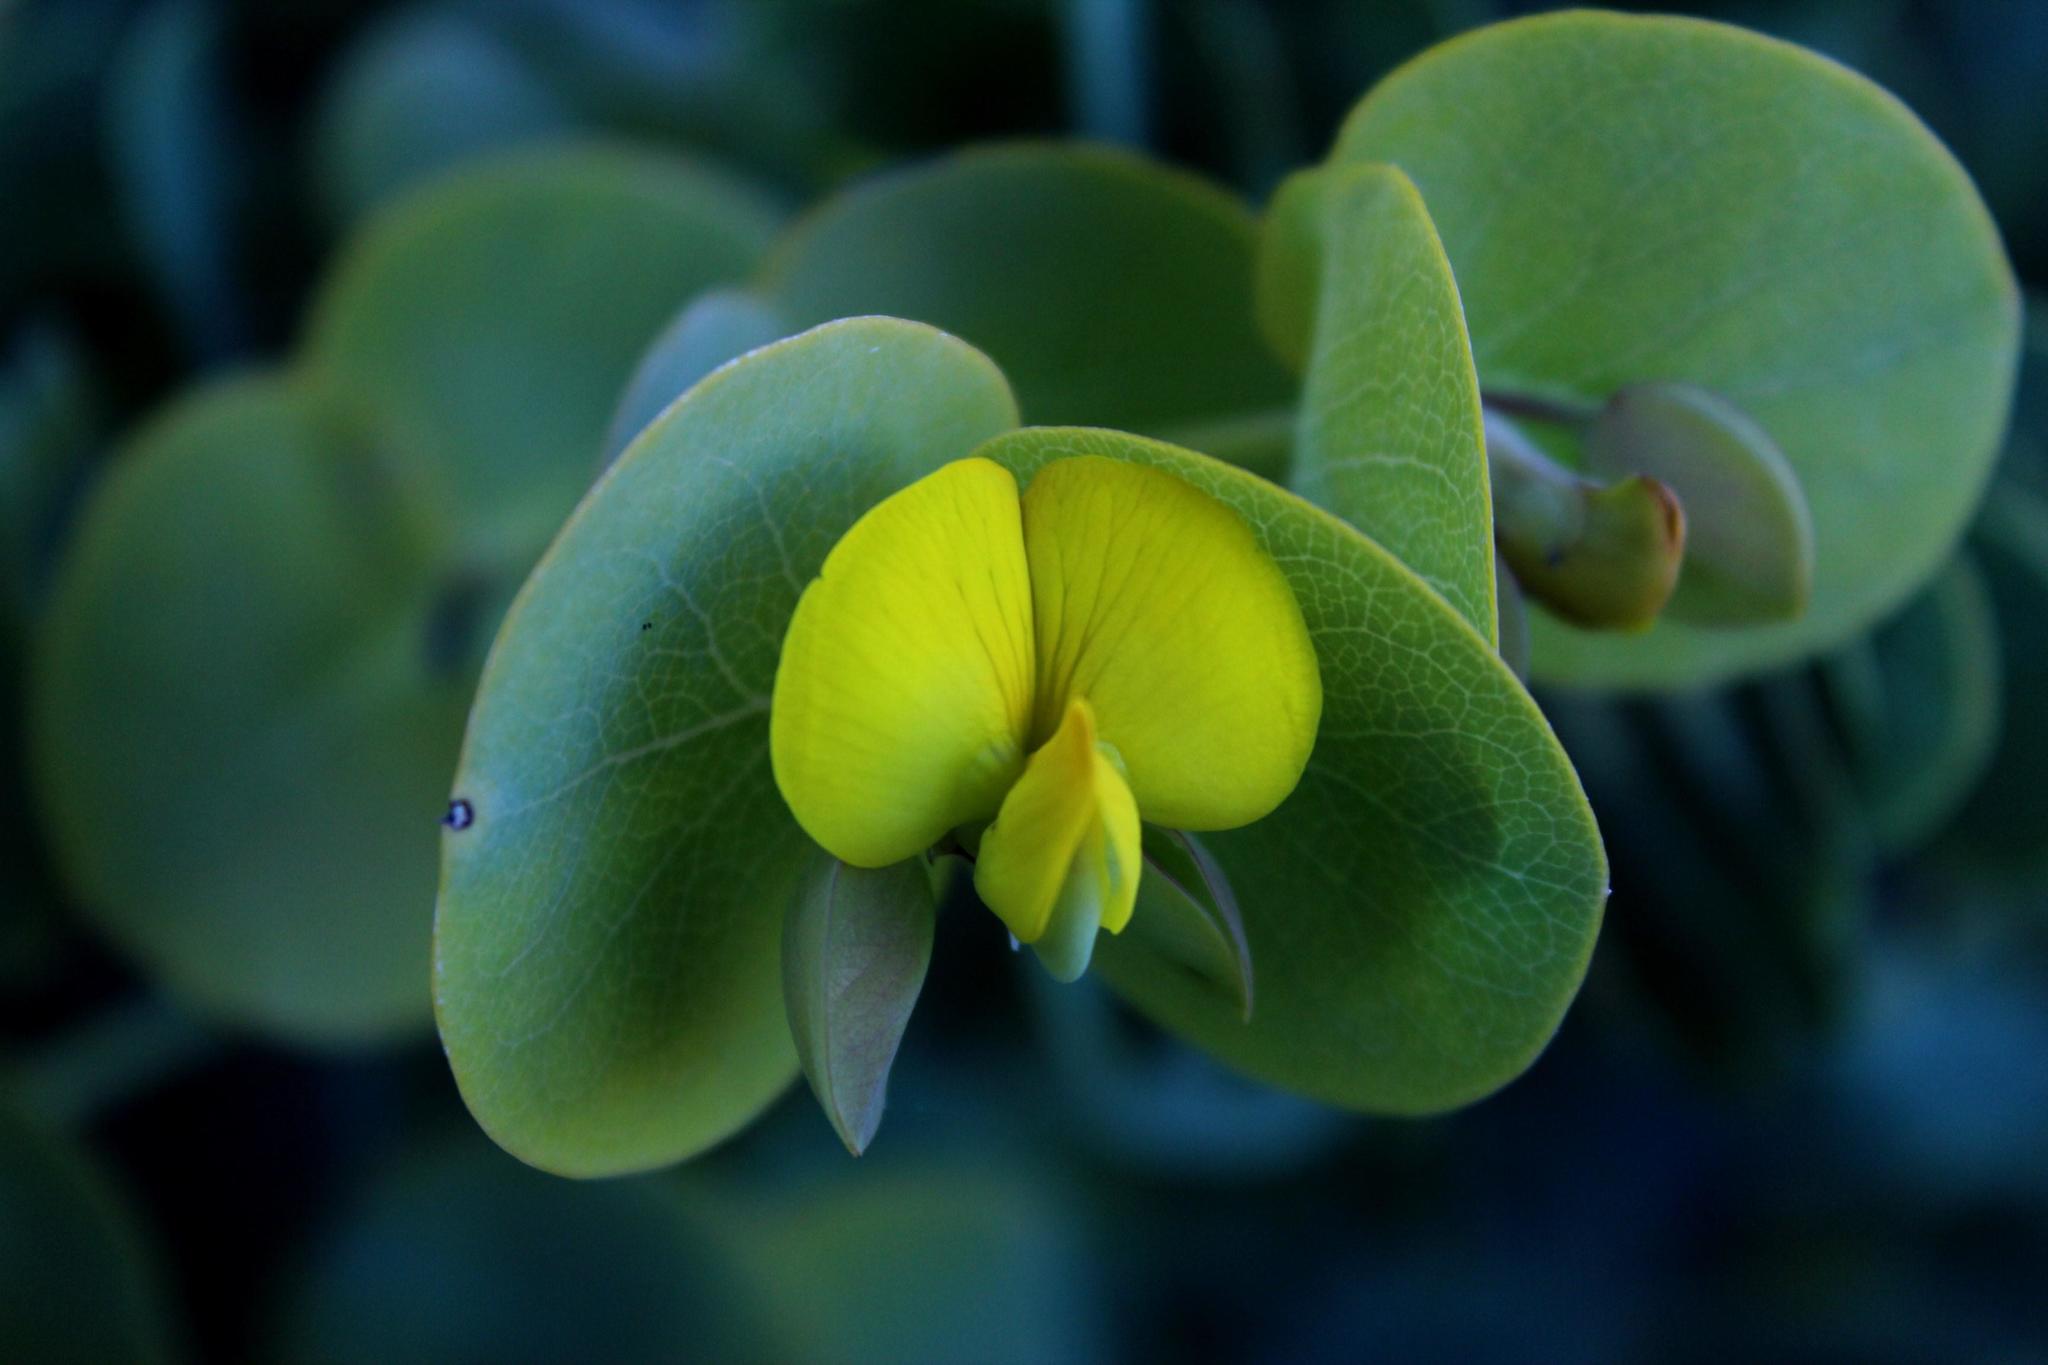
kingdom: Plantae
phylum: Tracheophyta
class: Magnoliopsida
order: Fabales
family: Fabaceae
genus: Rafnia
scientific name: Rafnia amplexicaulis
